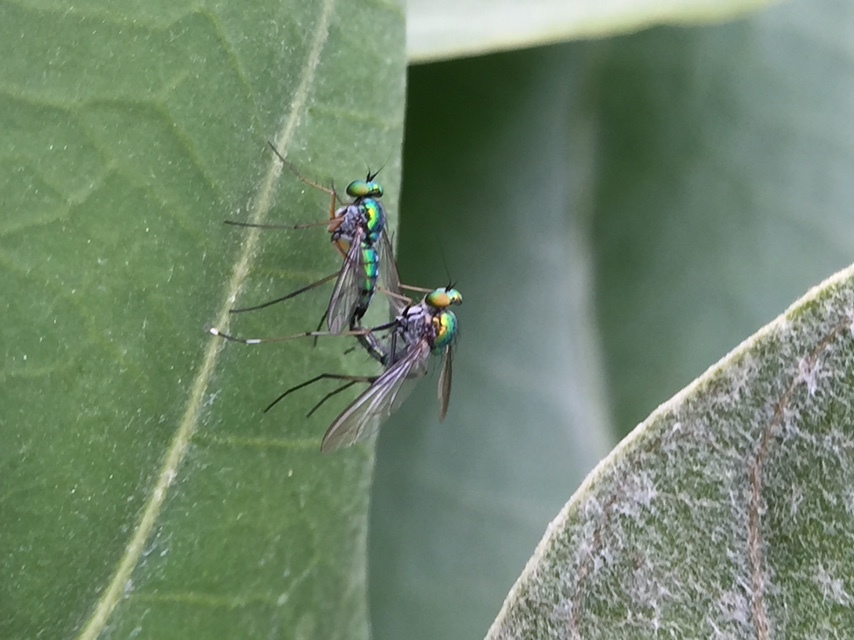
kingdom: Animalia
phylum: Arthropoda
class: Insecta
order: Diptera
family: Dolichopodidae
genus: Chrysosoma
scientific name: Chrysosoma leucopogon
